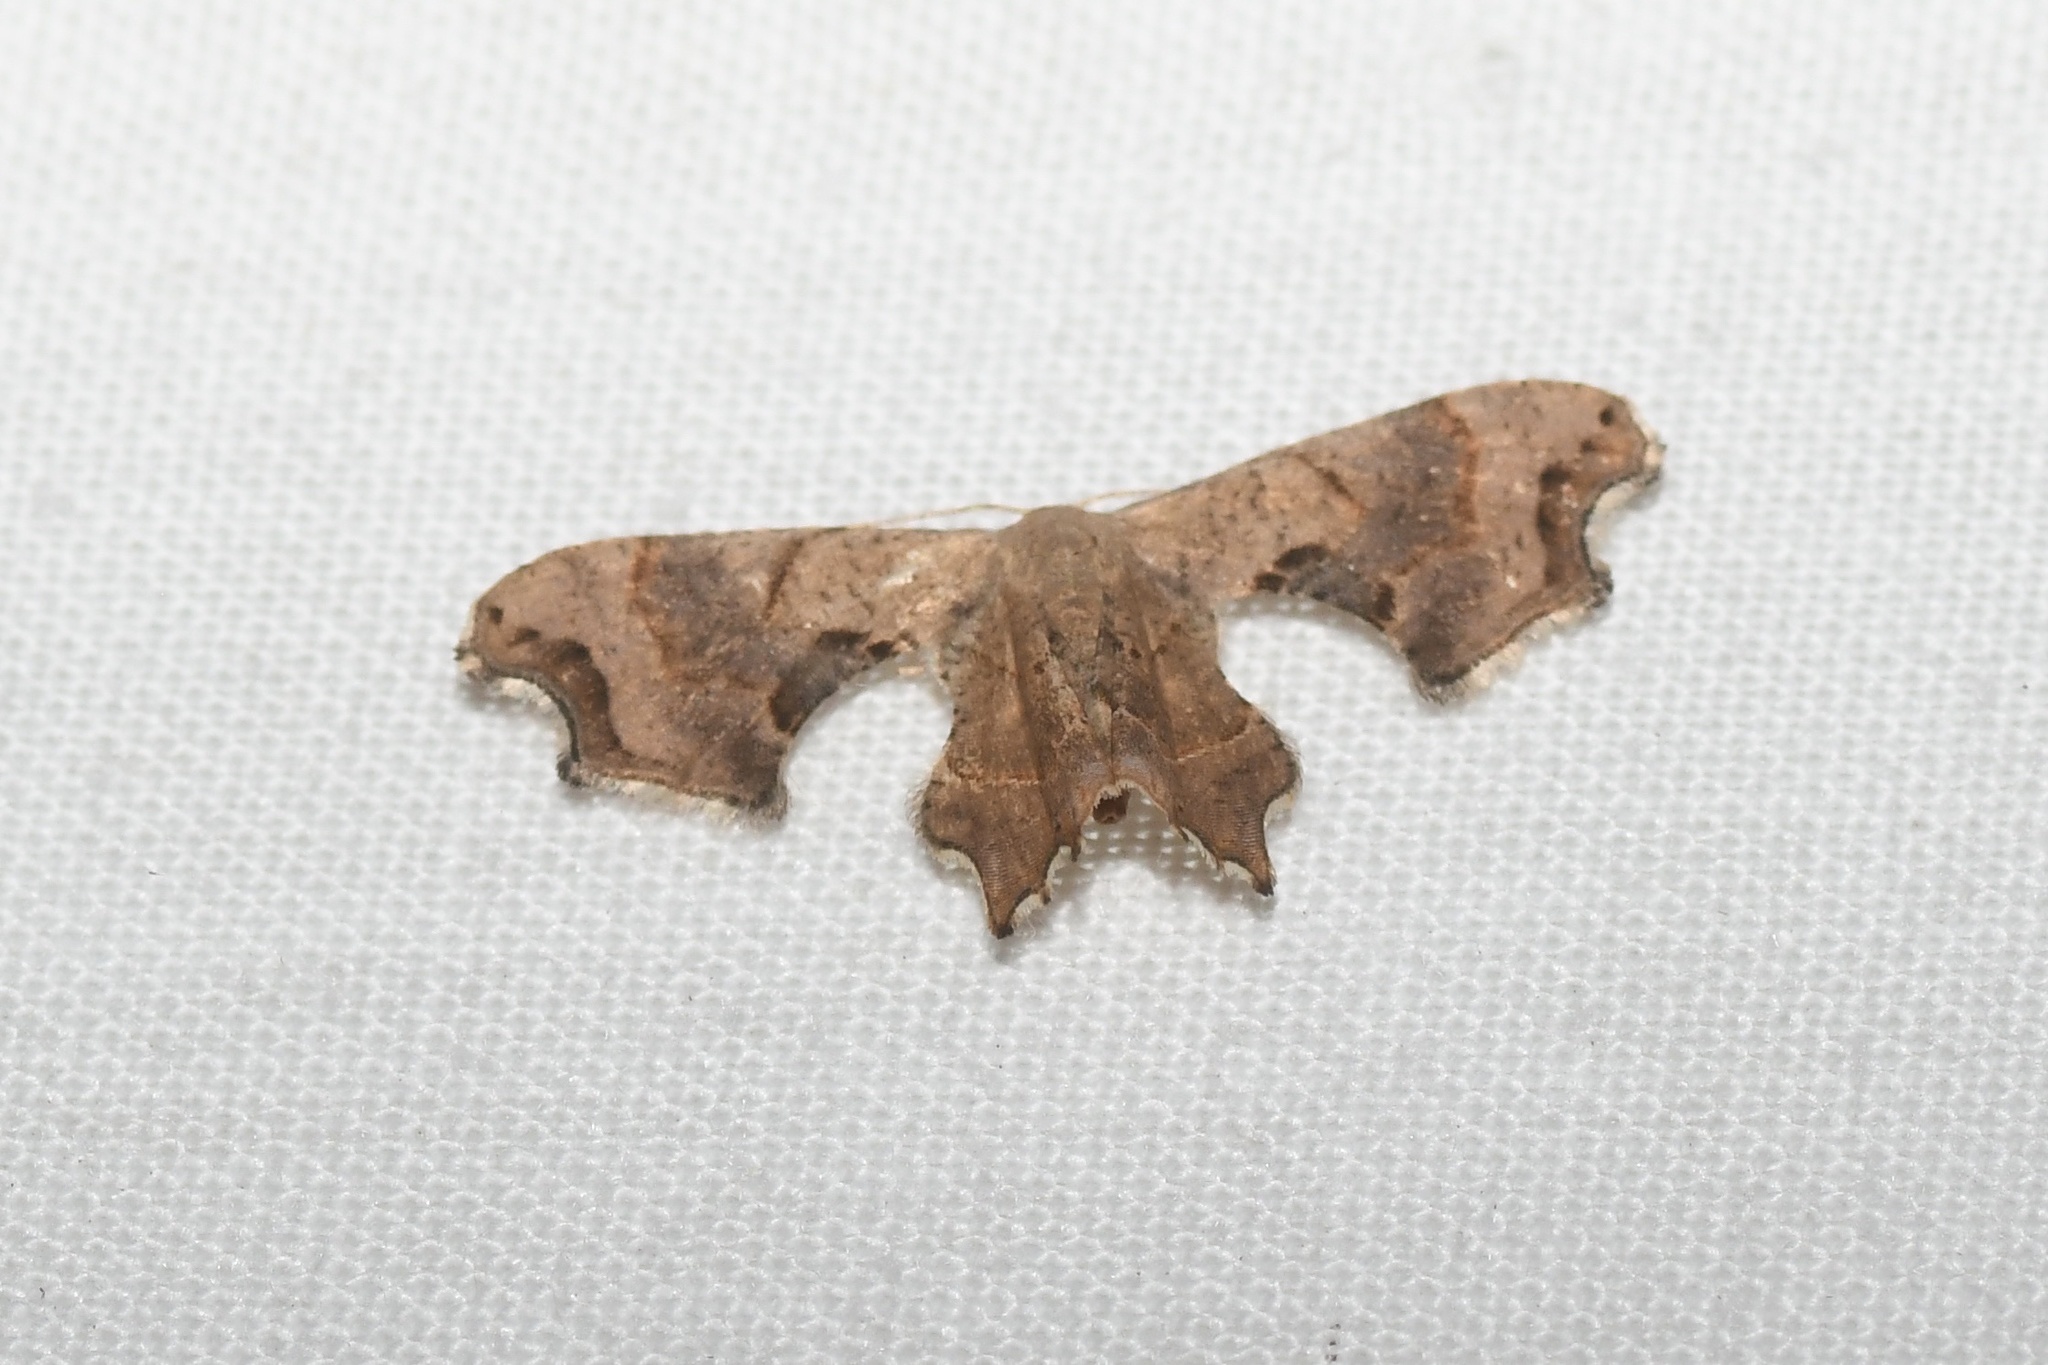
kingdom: Animalia
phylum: Arthropoda
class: Insecta
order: Lepidoptera
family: Uraniidae
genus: Epiplema
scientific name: Epiplema Calledapteryx dryopterata
